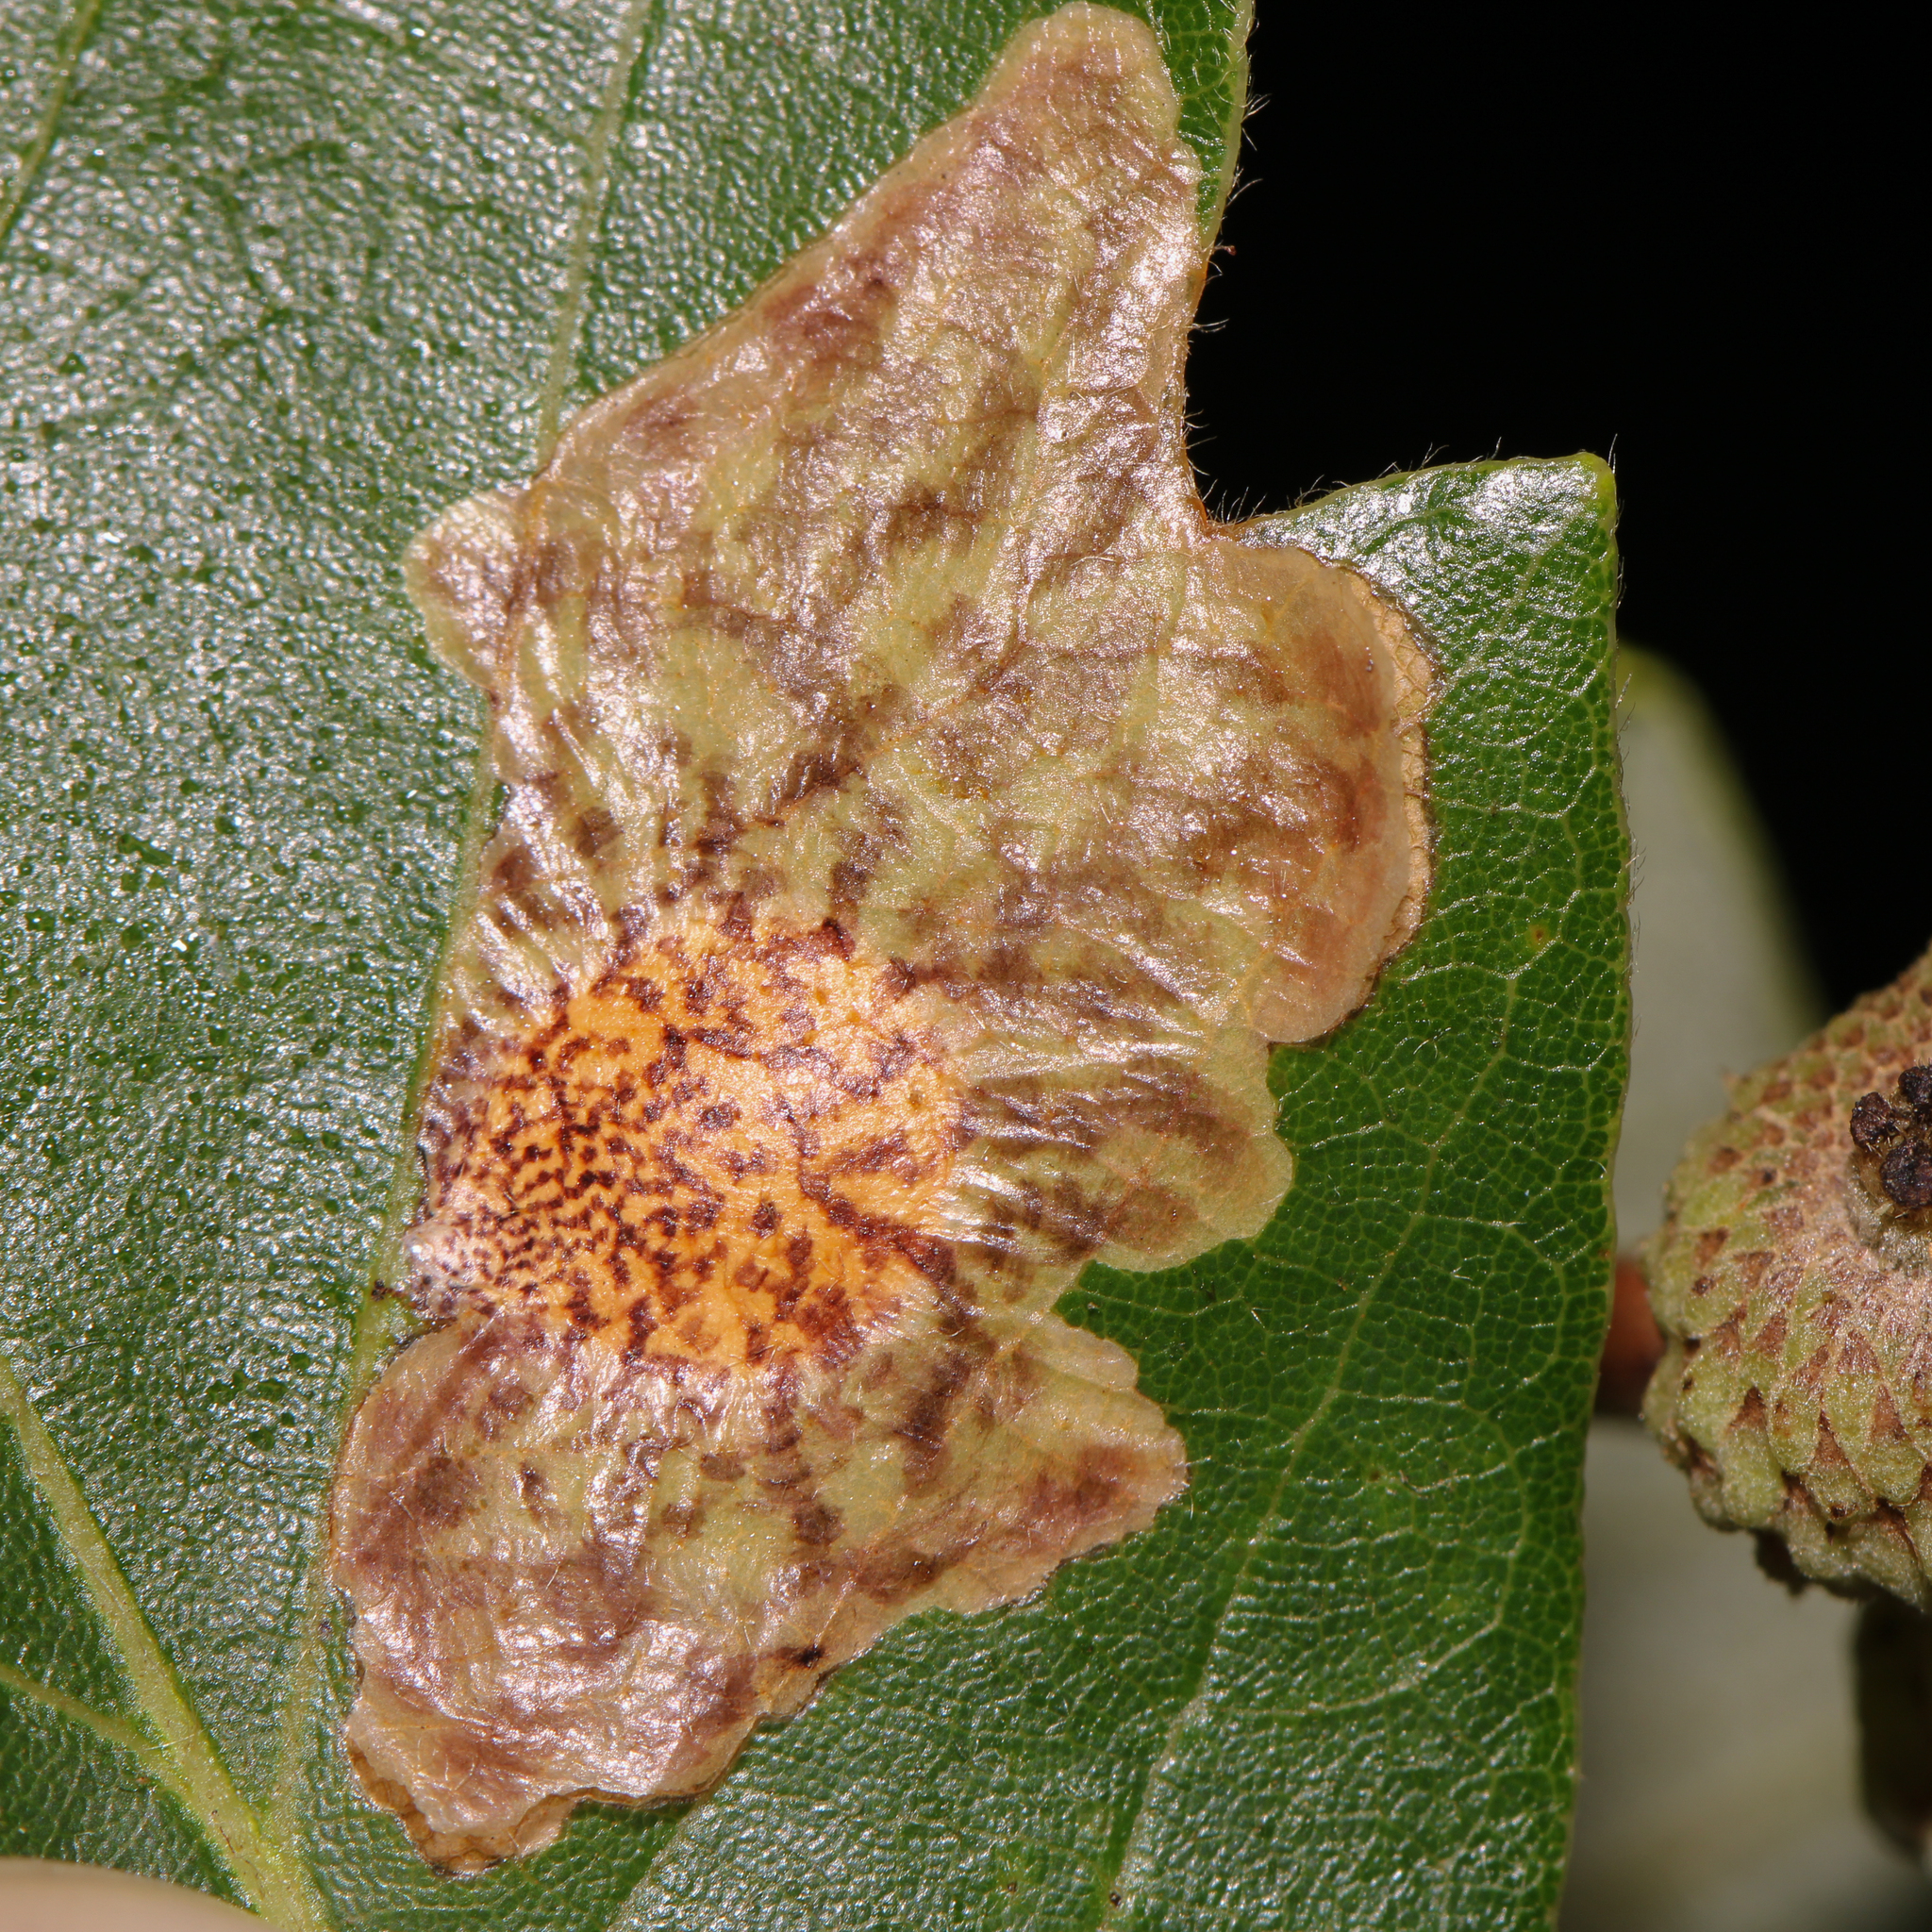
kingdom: Animalia
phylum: Arthropoda
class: Insecta
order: Lepidoptera
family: Tischeriidae
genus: Tischeria
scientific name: Tischeria quercitella
